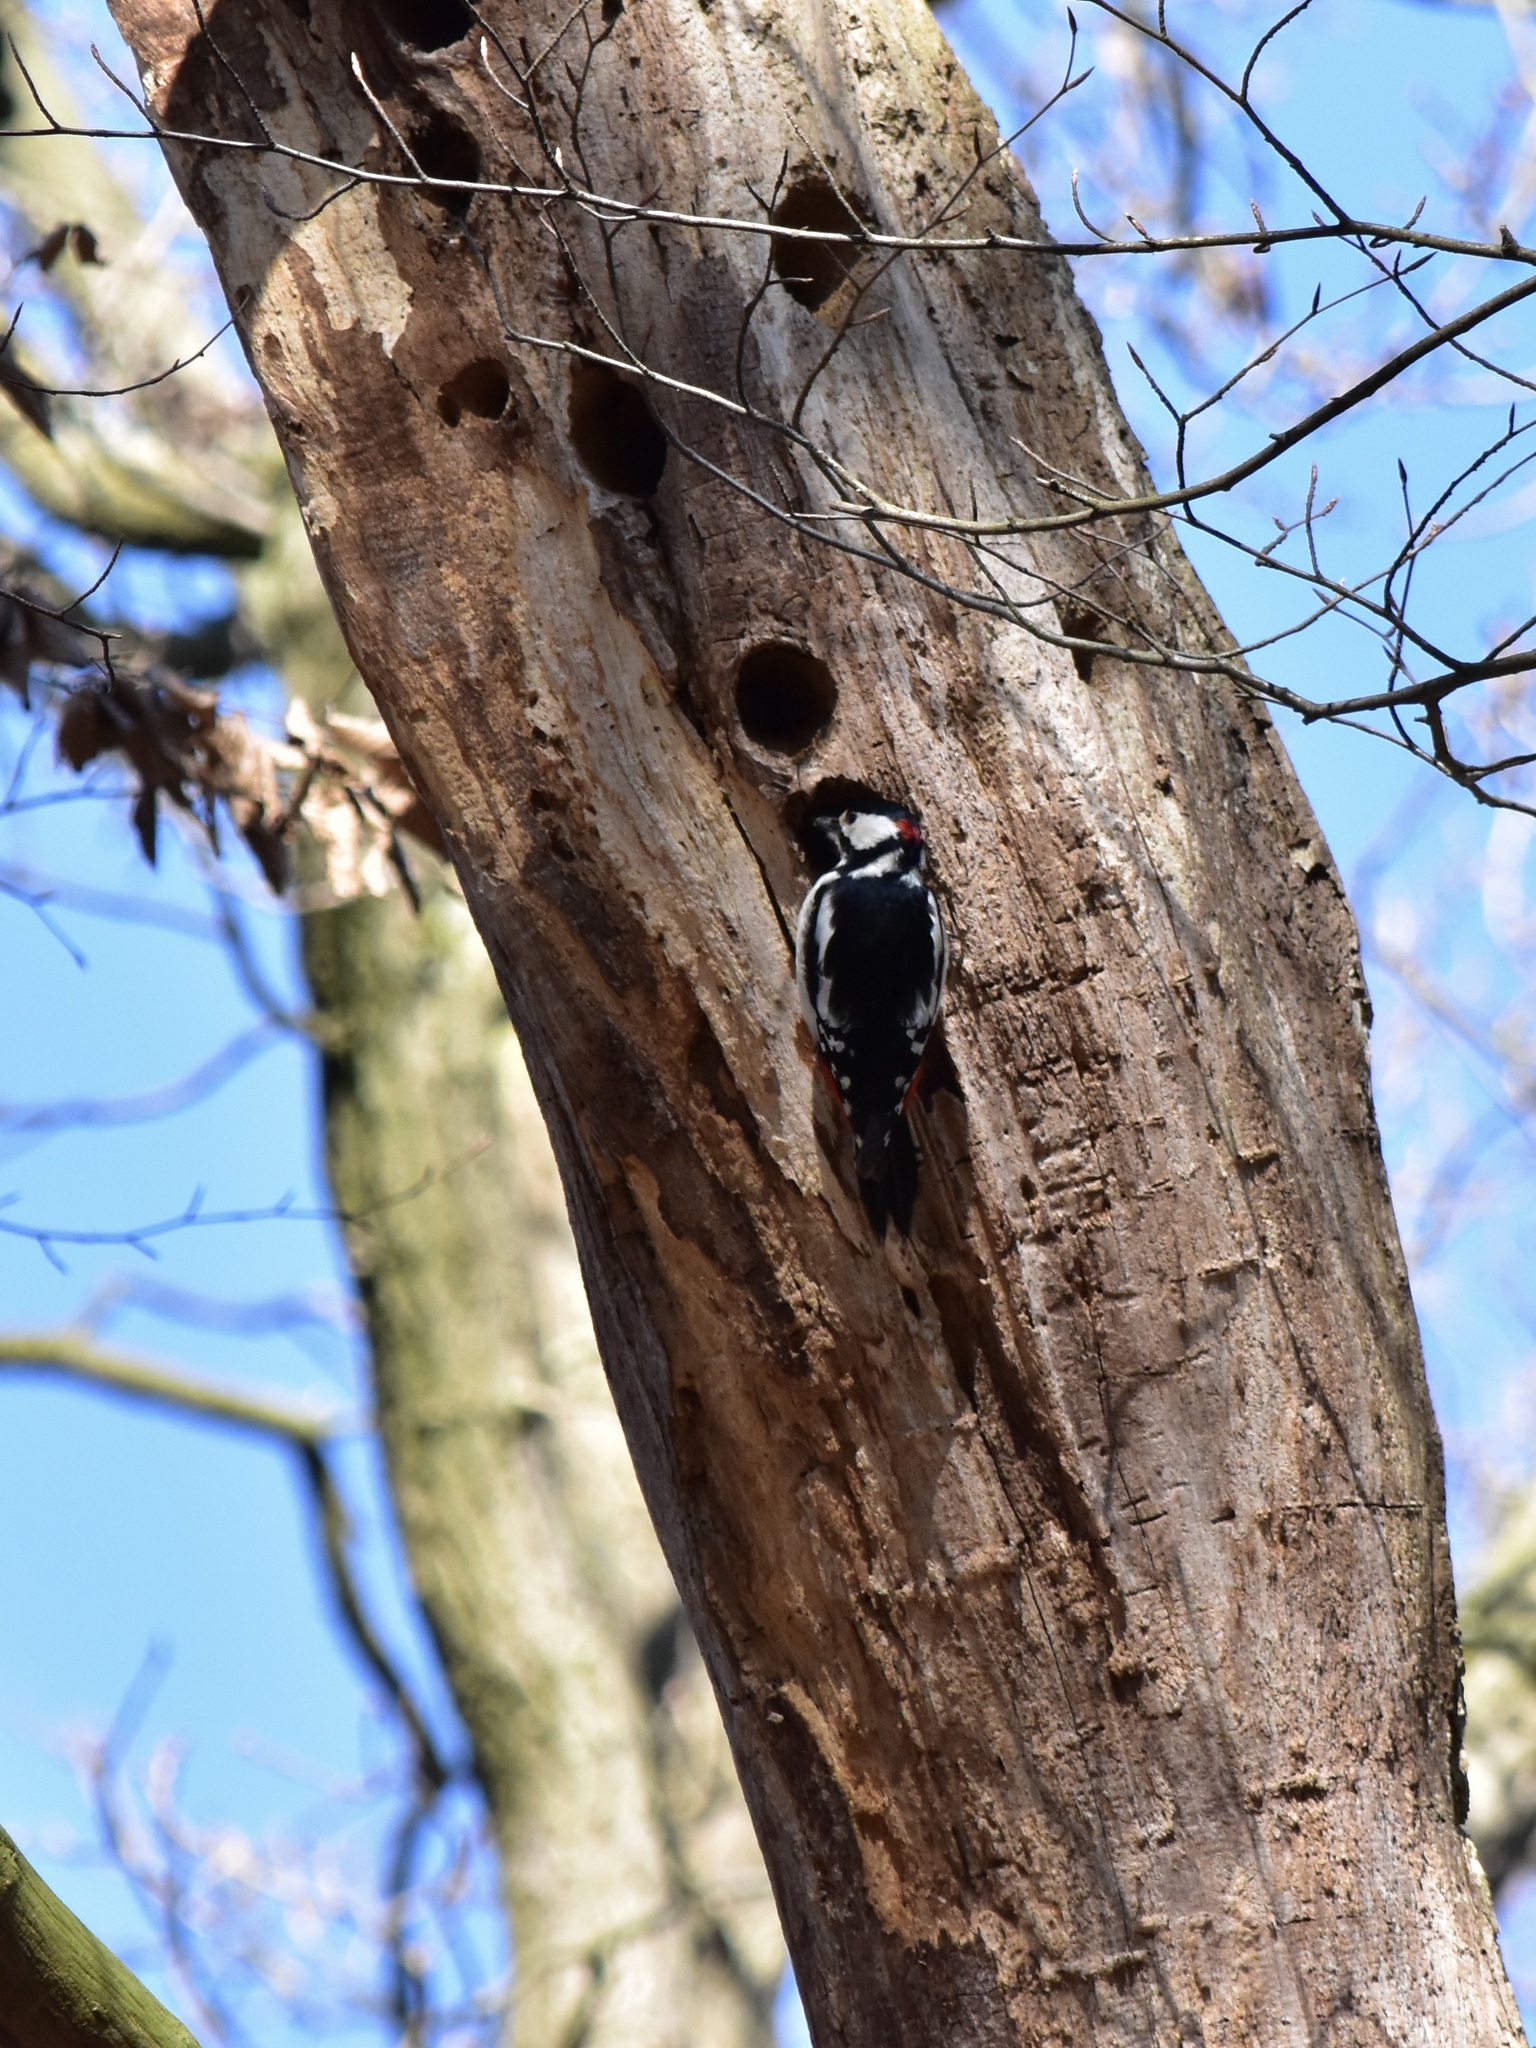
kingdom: Animalia
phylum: Chordata
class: Aves
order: Piciformes
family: Picidae
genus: Dendrocopos
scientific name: Dendrocopos major
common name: Great spotted woodpecker
